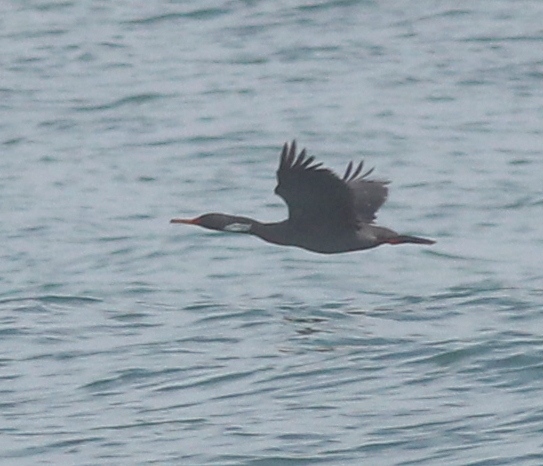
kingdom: Animalia
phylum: Chordata
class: Aves
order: Suliformes
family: Phalacrocoracidae
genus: Phalacrocorax
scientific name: Phalacrocorax gaimardi
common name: Red-legged cormorant
